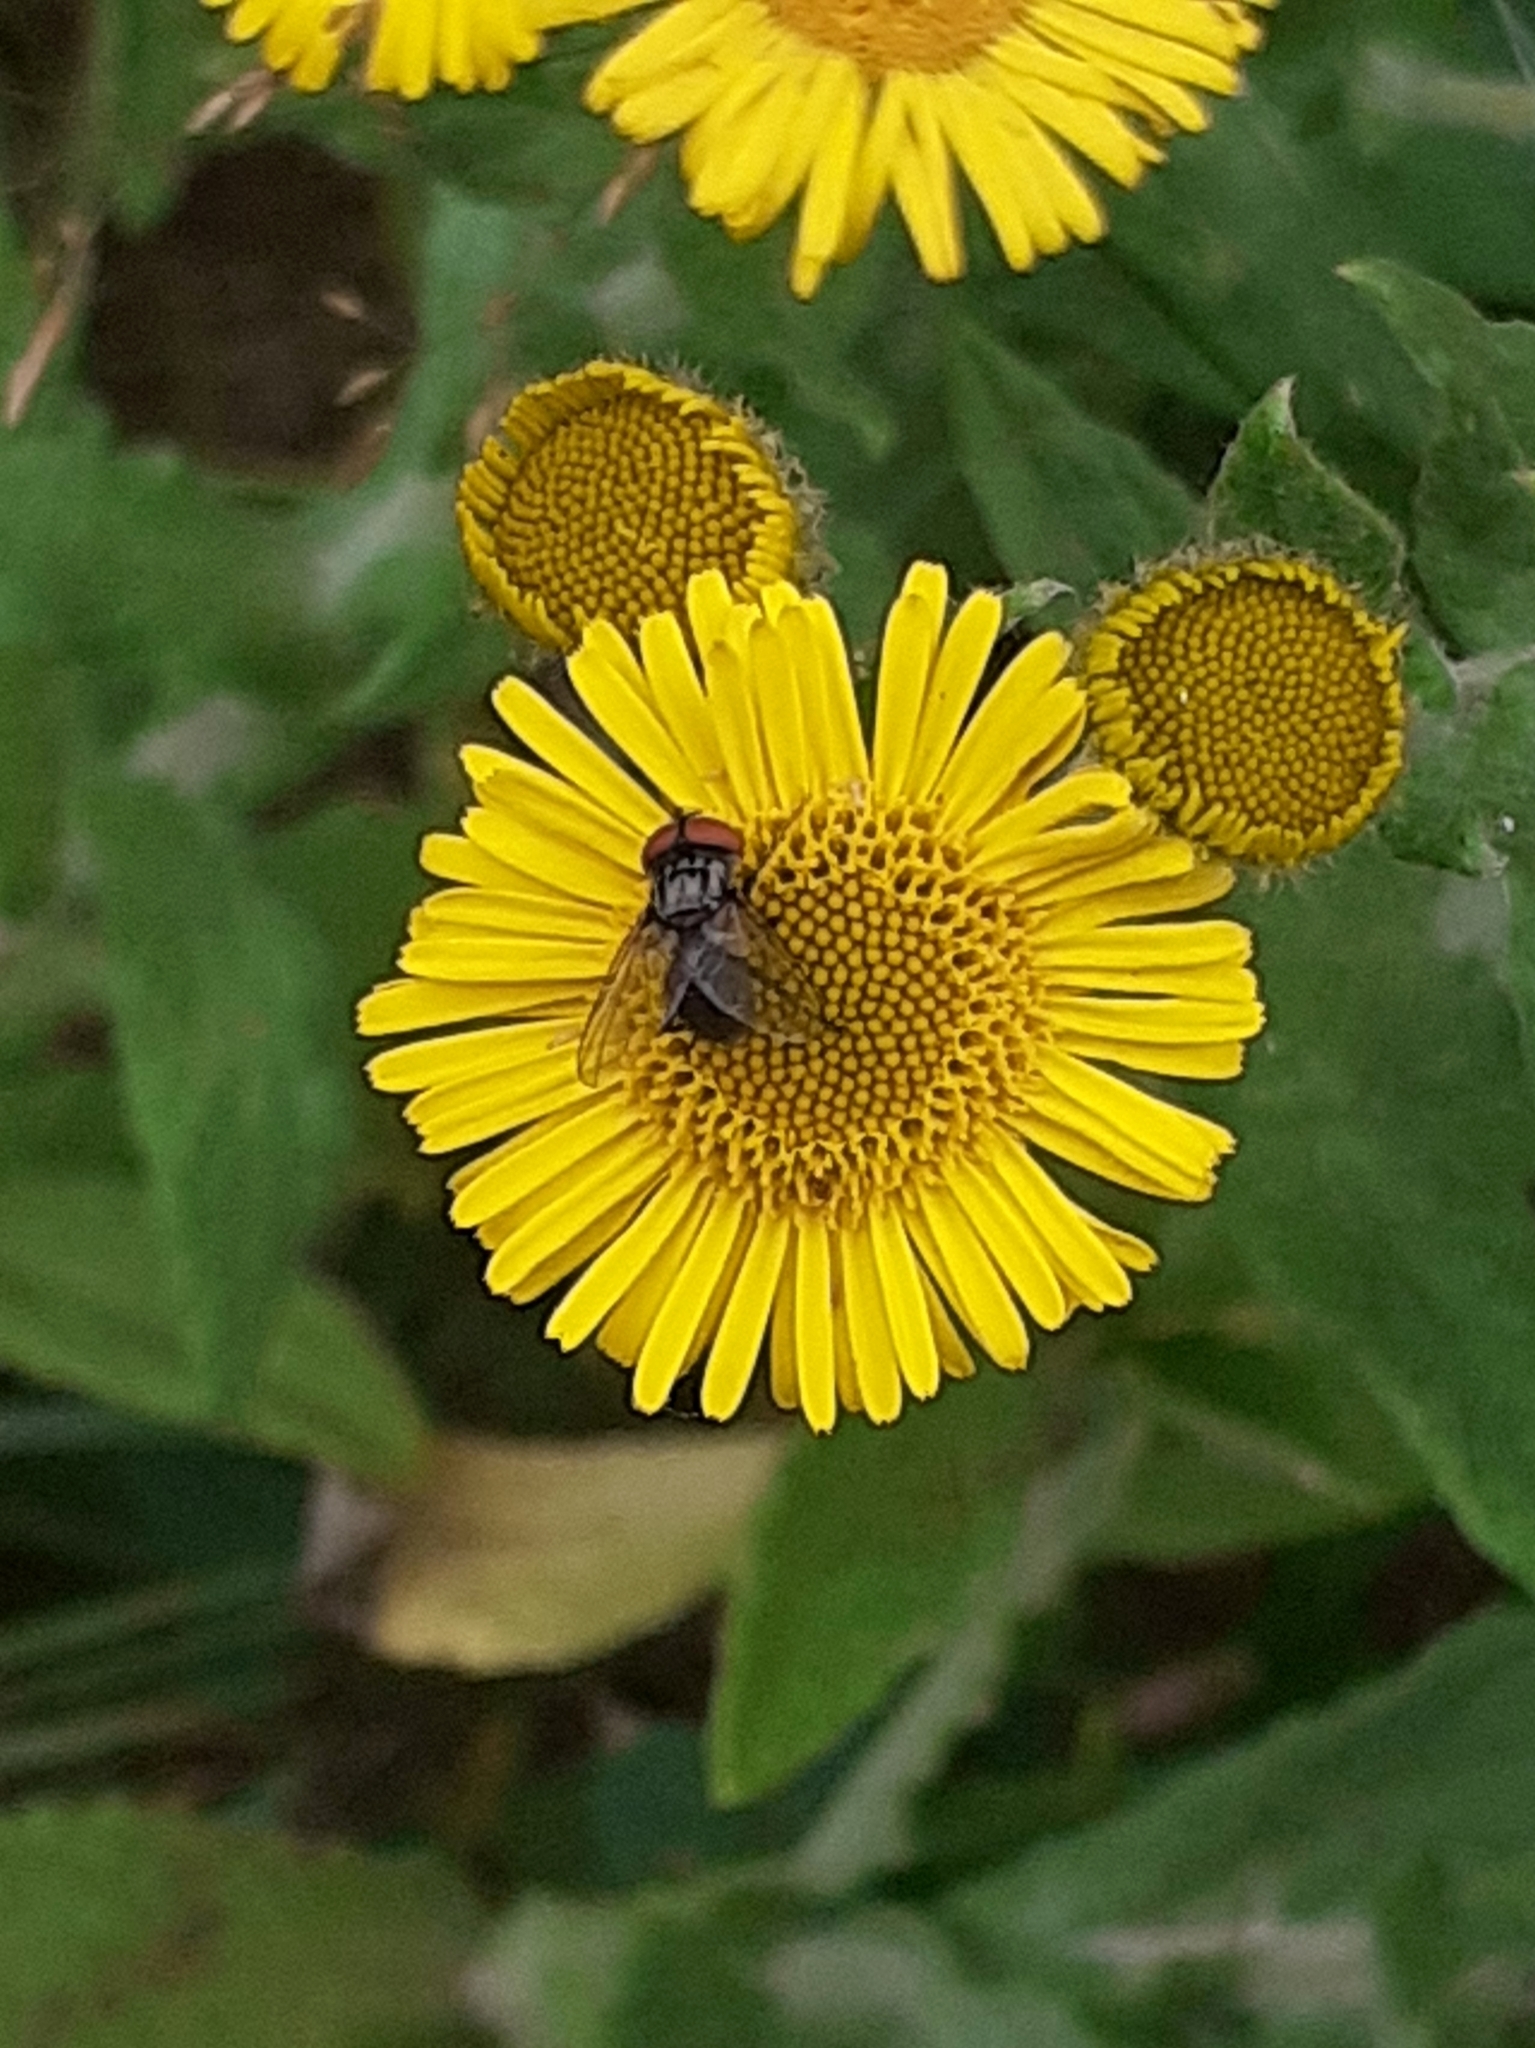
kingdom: Animalia
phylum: Arthropoda
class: Insecta
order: Diptera
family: Tachinidae
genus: Phasia
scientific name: Phasia obesa
